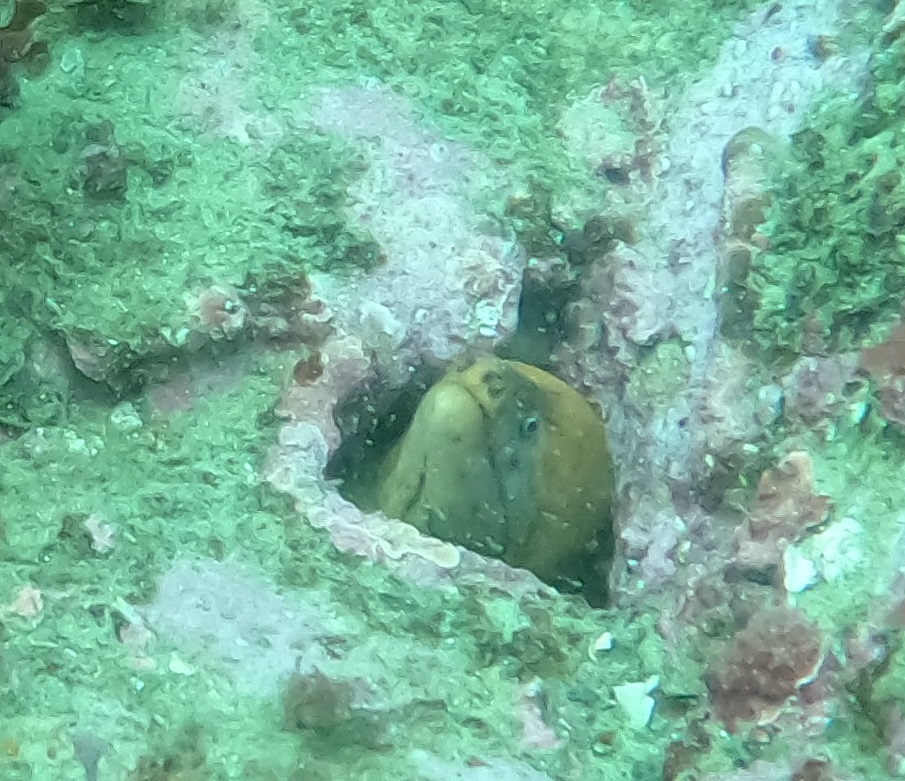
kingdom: Animalia
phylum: Chordata
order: Anguilliformes
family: Muraenidae
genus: Gymnothorax
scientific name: Gymnothorax prasinus
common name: Yellow moray
